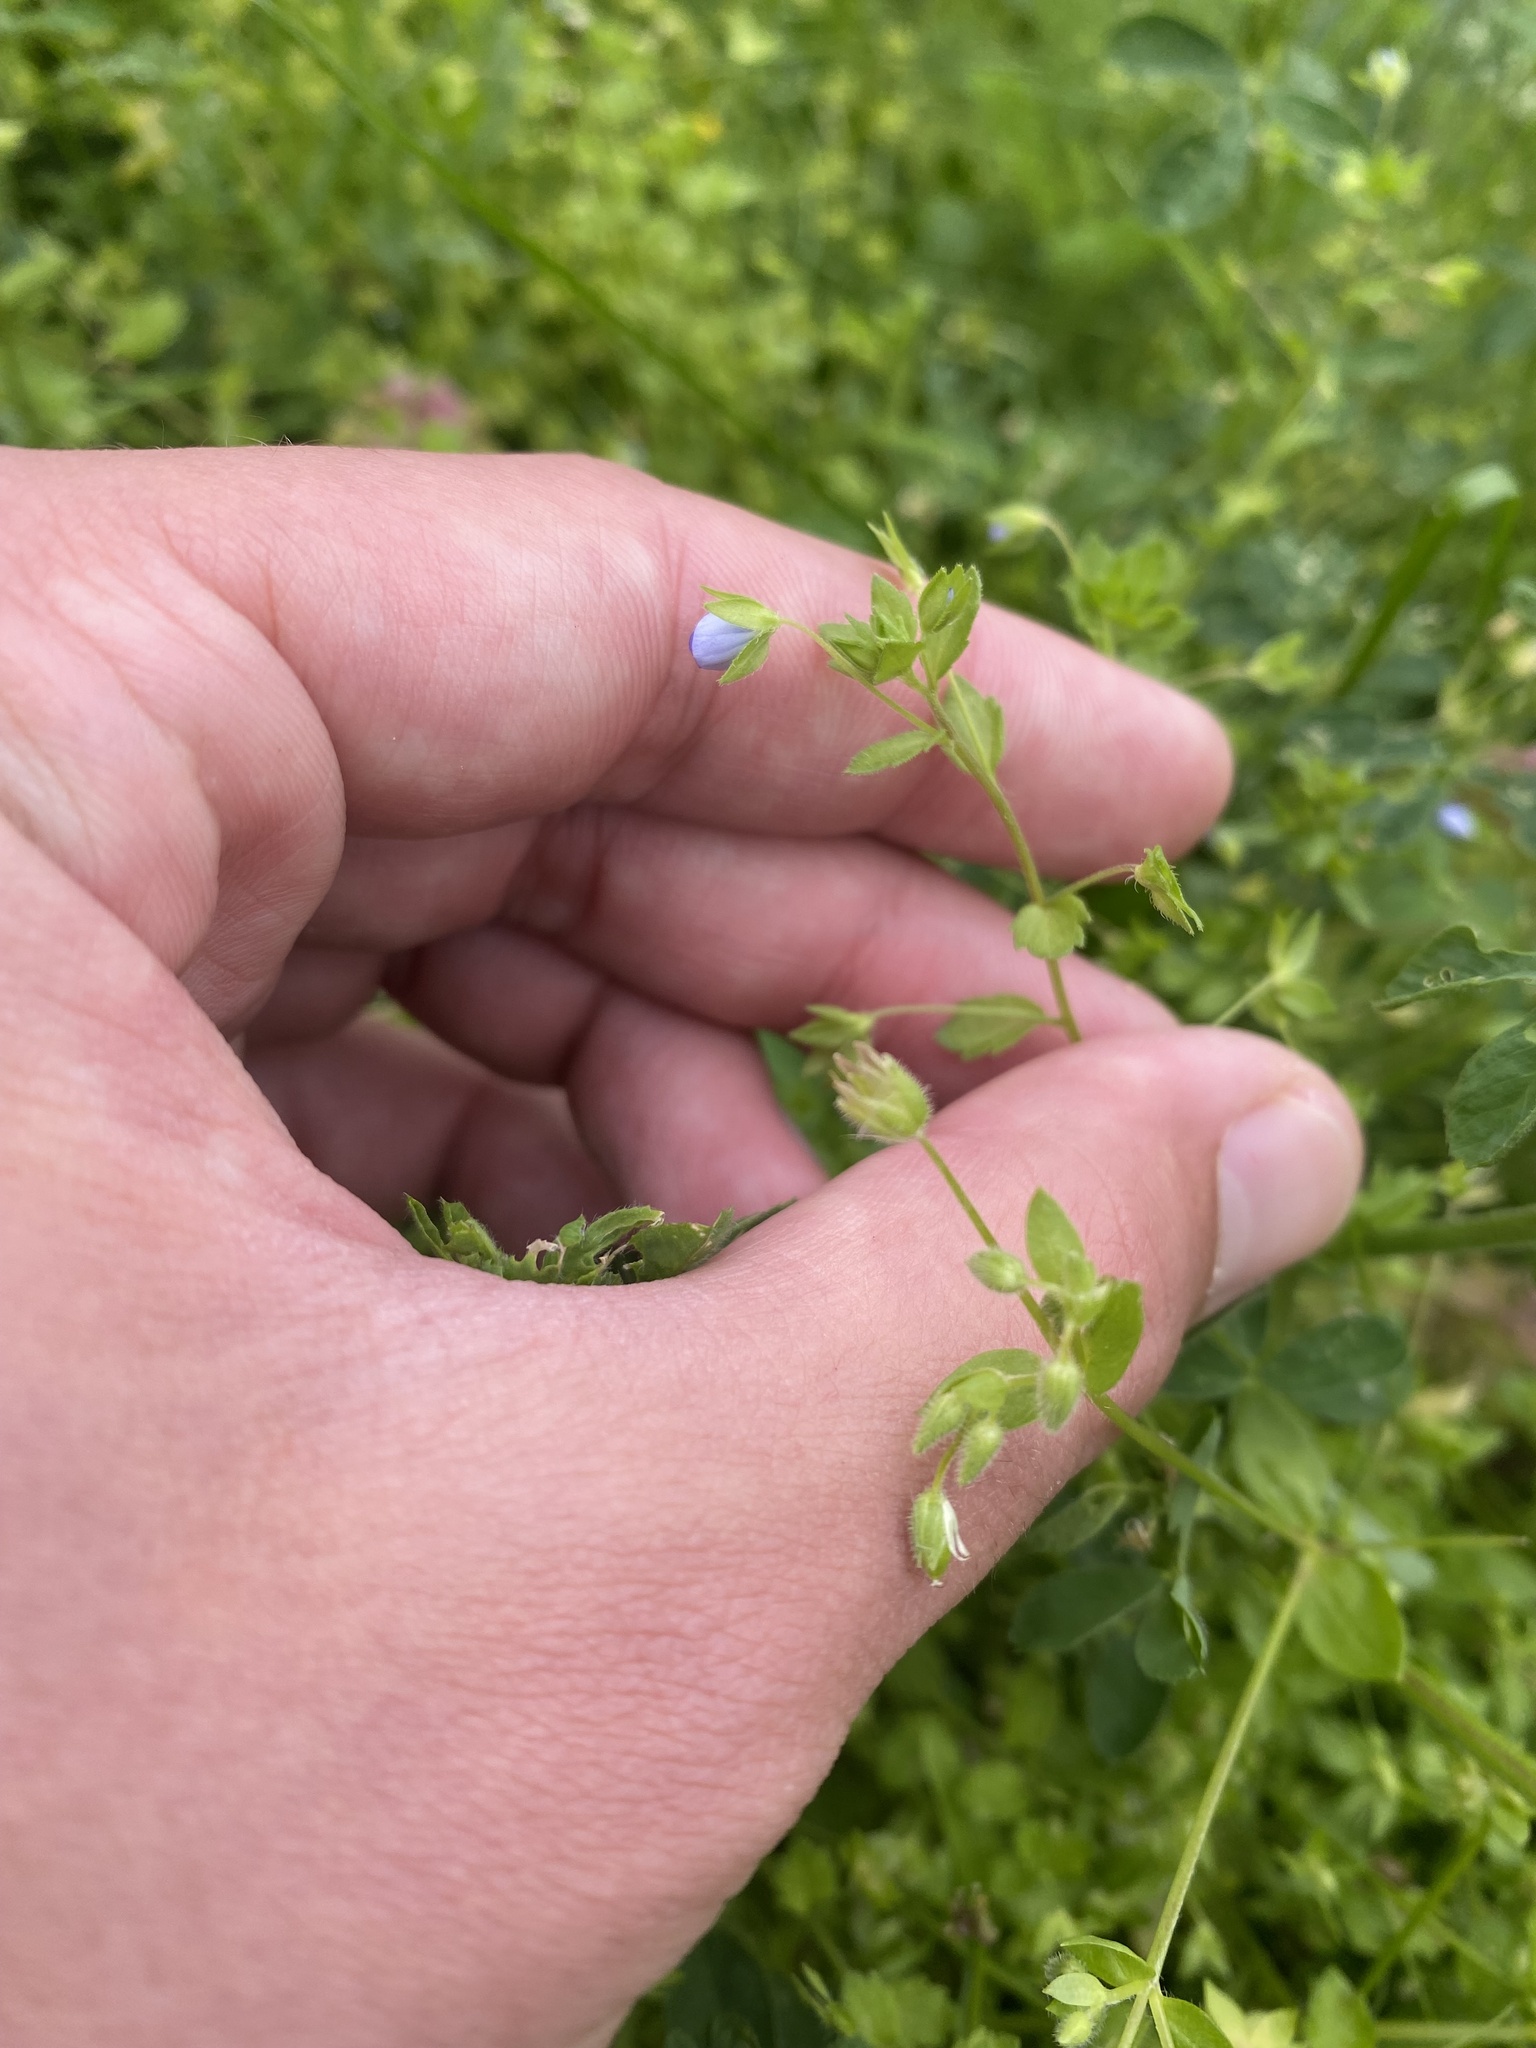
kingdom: Plantae
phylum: Tracheophyta
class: Magnoliopsida
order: Lamiales
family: Plantaginaceae
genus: Veronica
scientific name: Veronica persica
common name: Common field-speedwell
